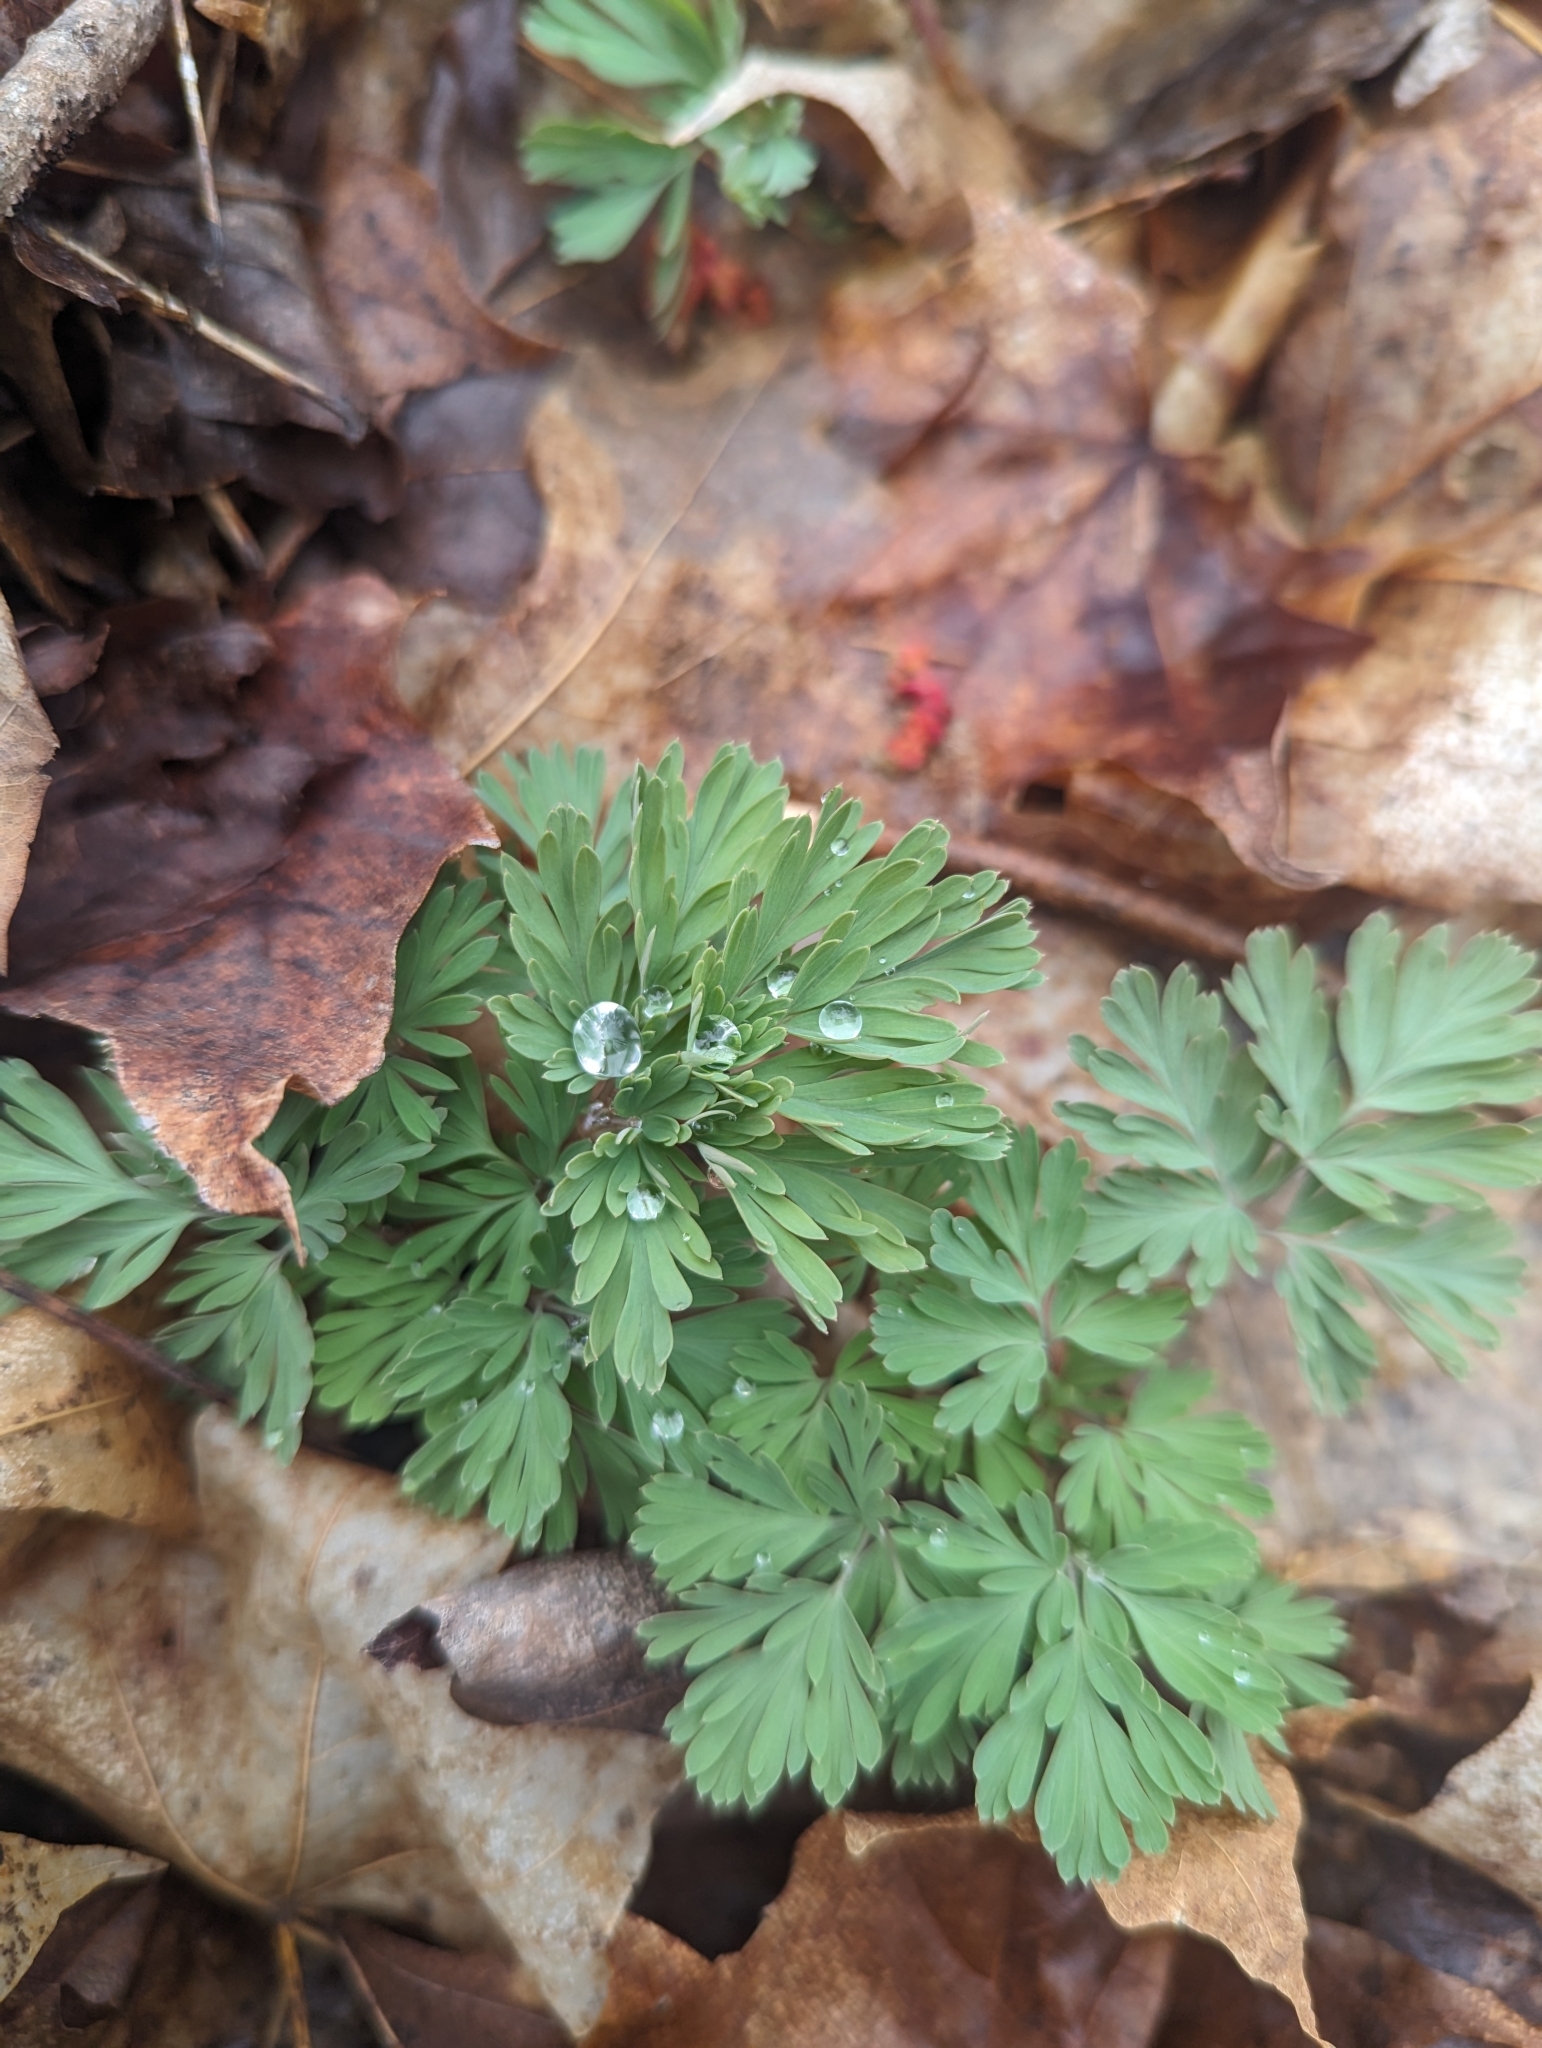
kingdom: Plantae
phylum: Tracheophyta
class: Magnoliopsida
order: Ranunculales
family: Papaveraceae
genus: Dicentra
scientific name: Dicentra cucullaria
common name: Dutchman's breeches
